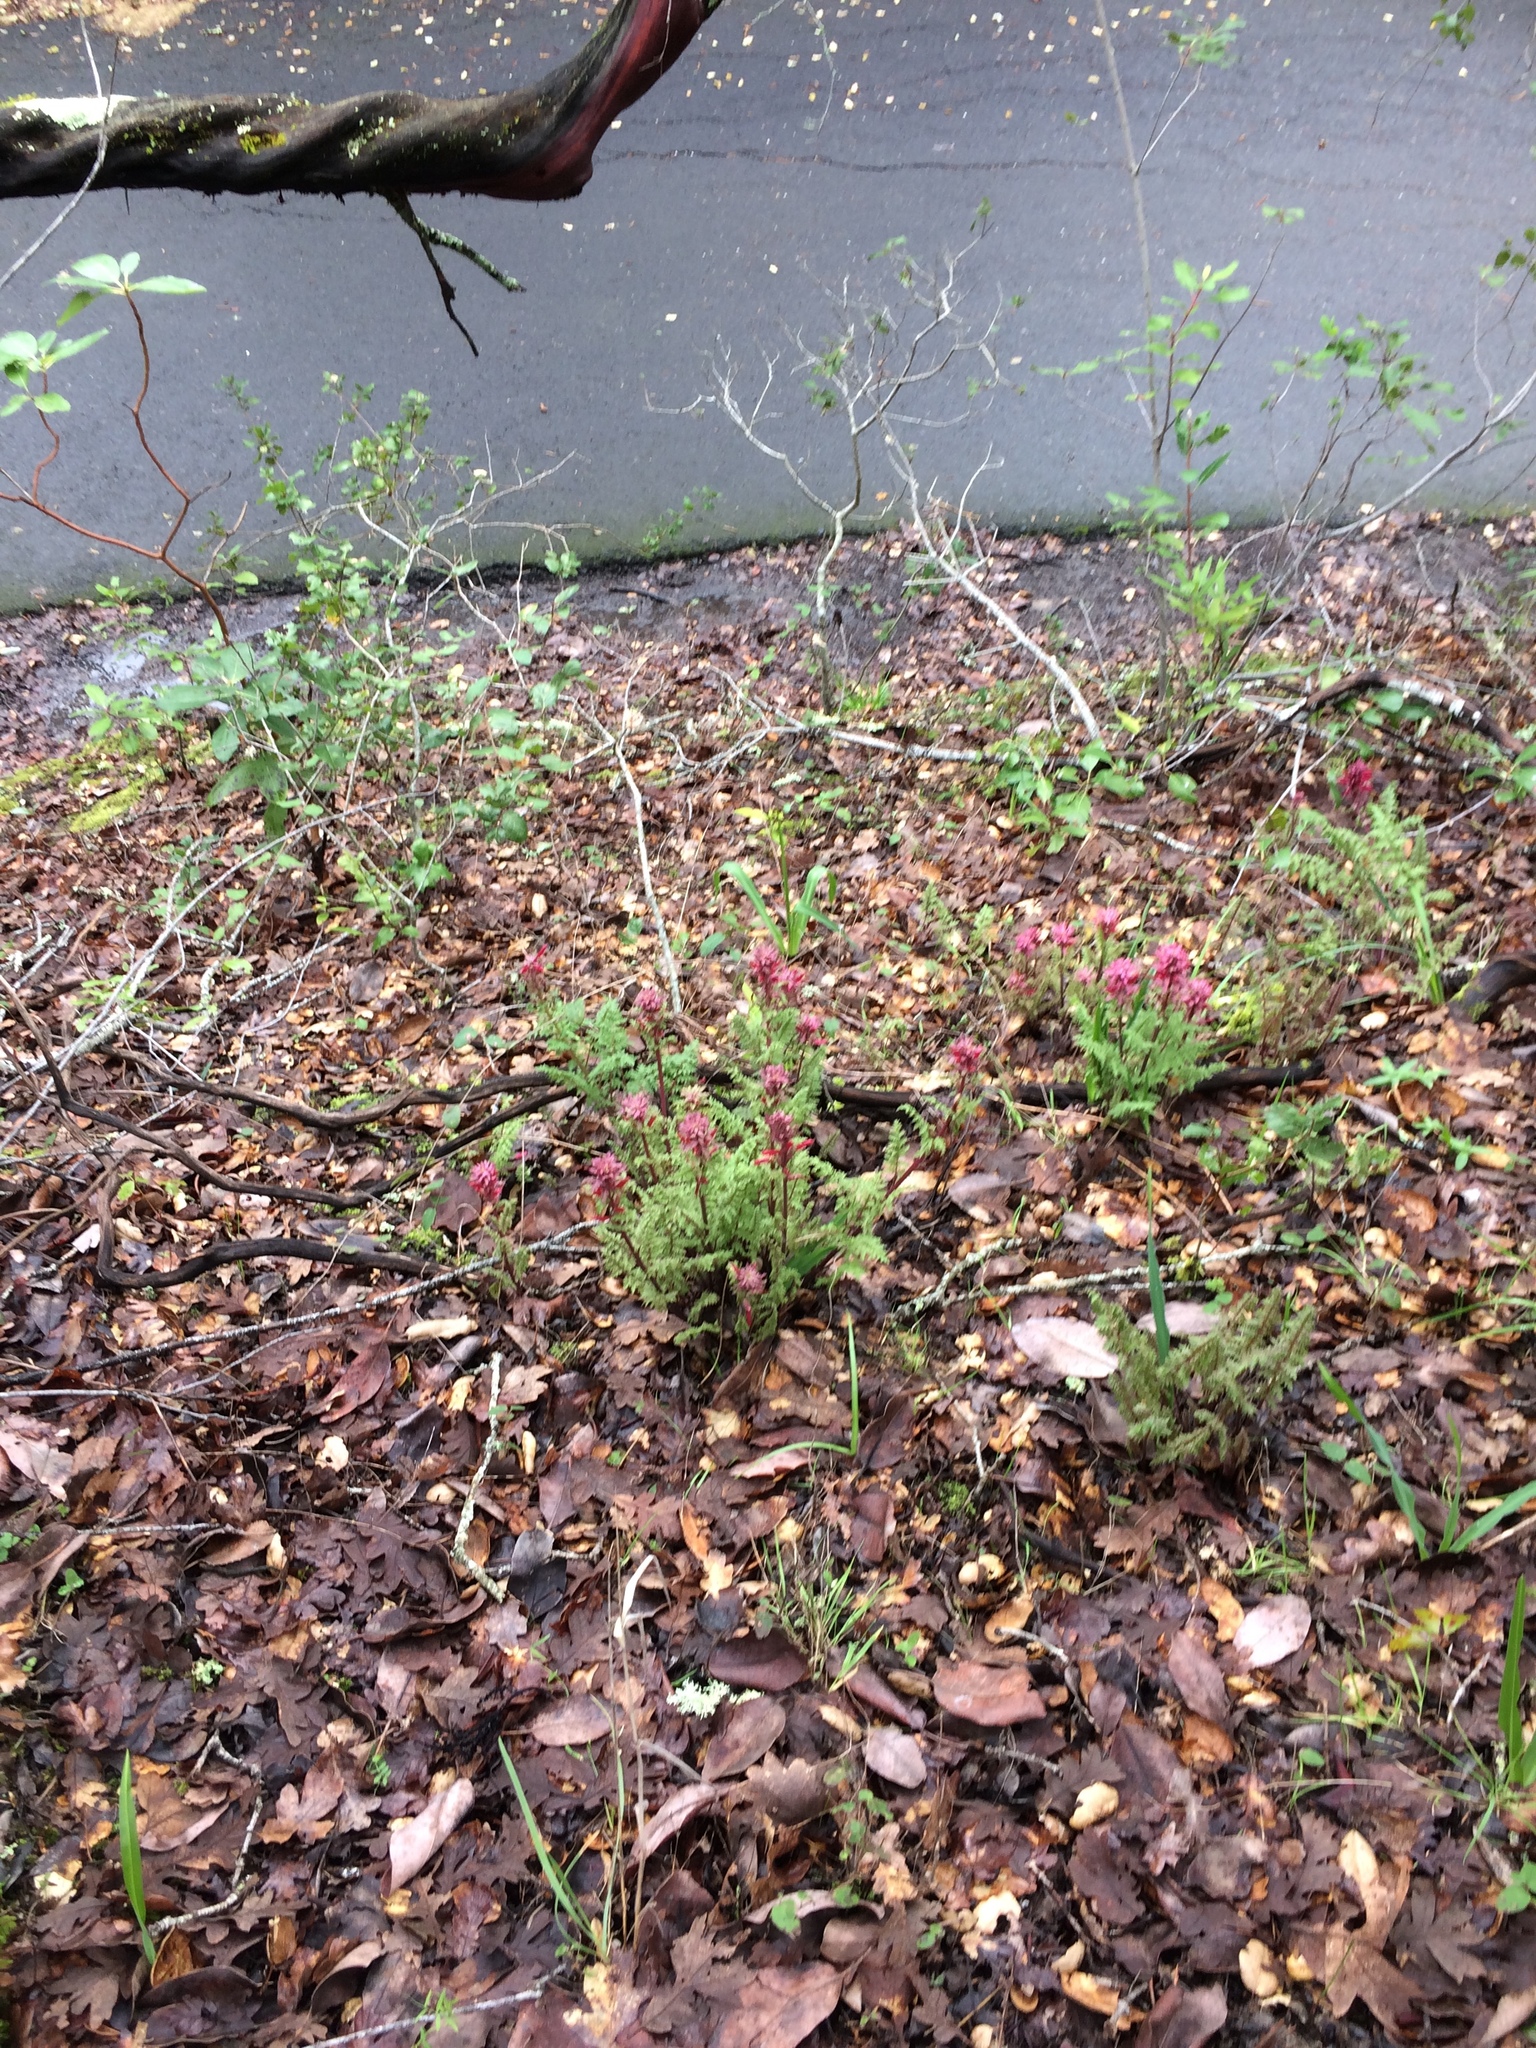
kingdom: Plantae
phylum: Tracheophyta
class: Magnoliopsida
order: Lamiales
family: Orobanchaceae
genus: Pedicularis
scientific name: Pedicularis densiflora
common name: Indian warrior
